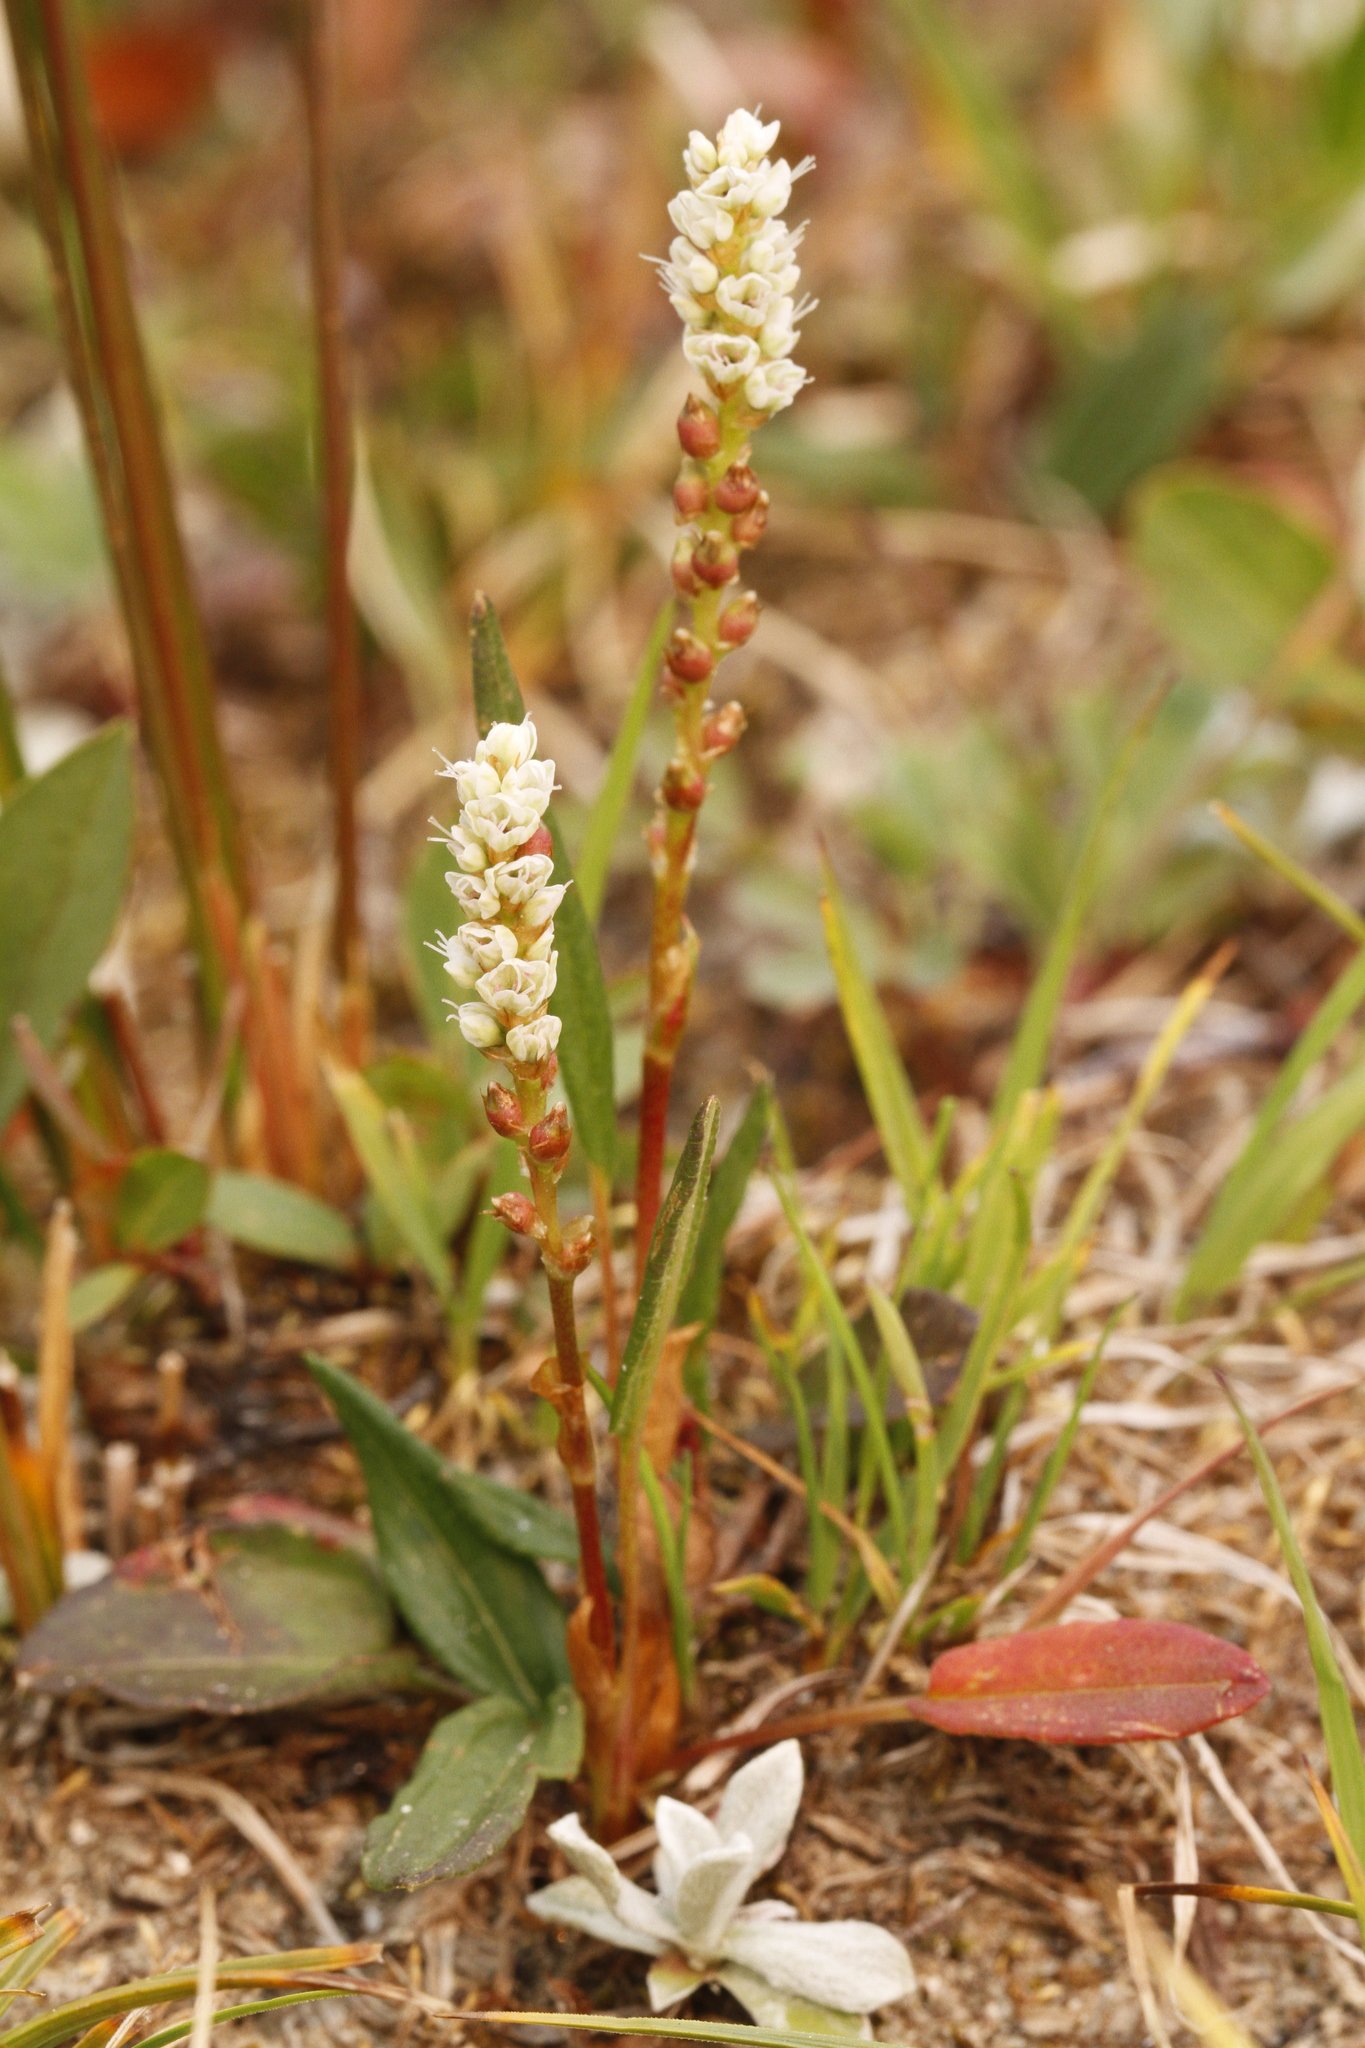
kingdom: Plantae
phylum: Tracheophyta
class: Magnoliopsida
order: Caryophyllales
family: Polygonaceae
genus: Bistorta
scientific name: Bistorta vivipara
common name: Alpine bistort
